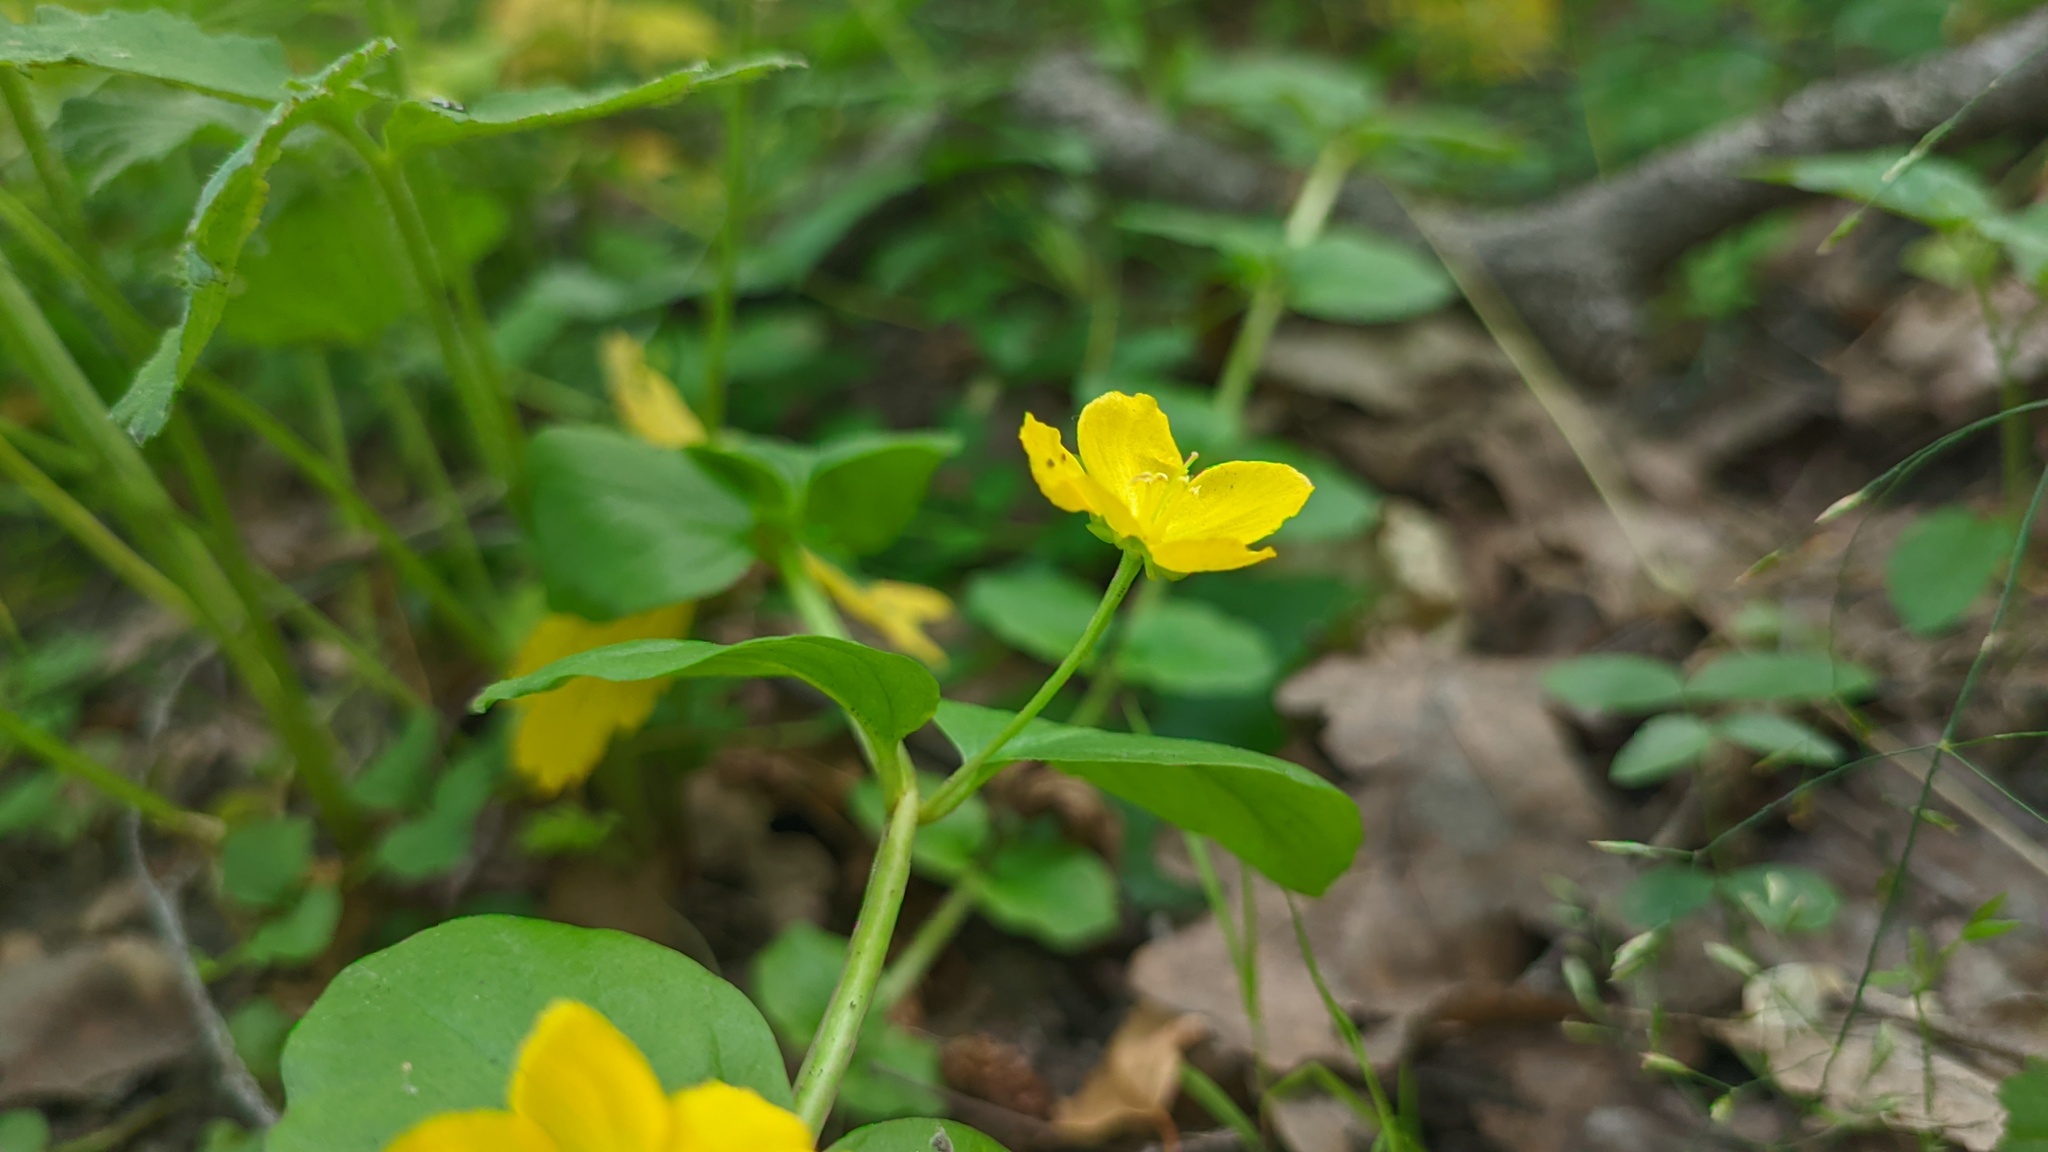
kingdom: Plantae
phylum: Tracheophyta
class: Magnoliopsida
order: Ericales
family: Primulaceae
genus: Lysimachia
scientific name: Lysimachia nummularia
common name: Moneywort
